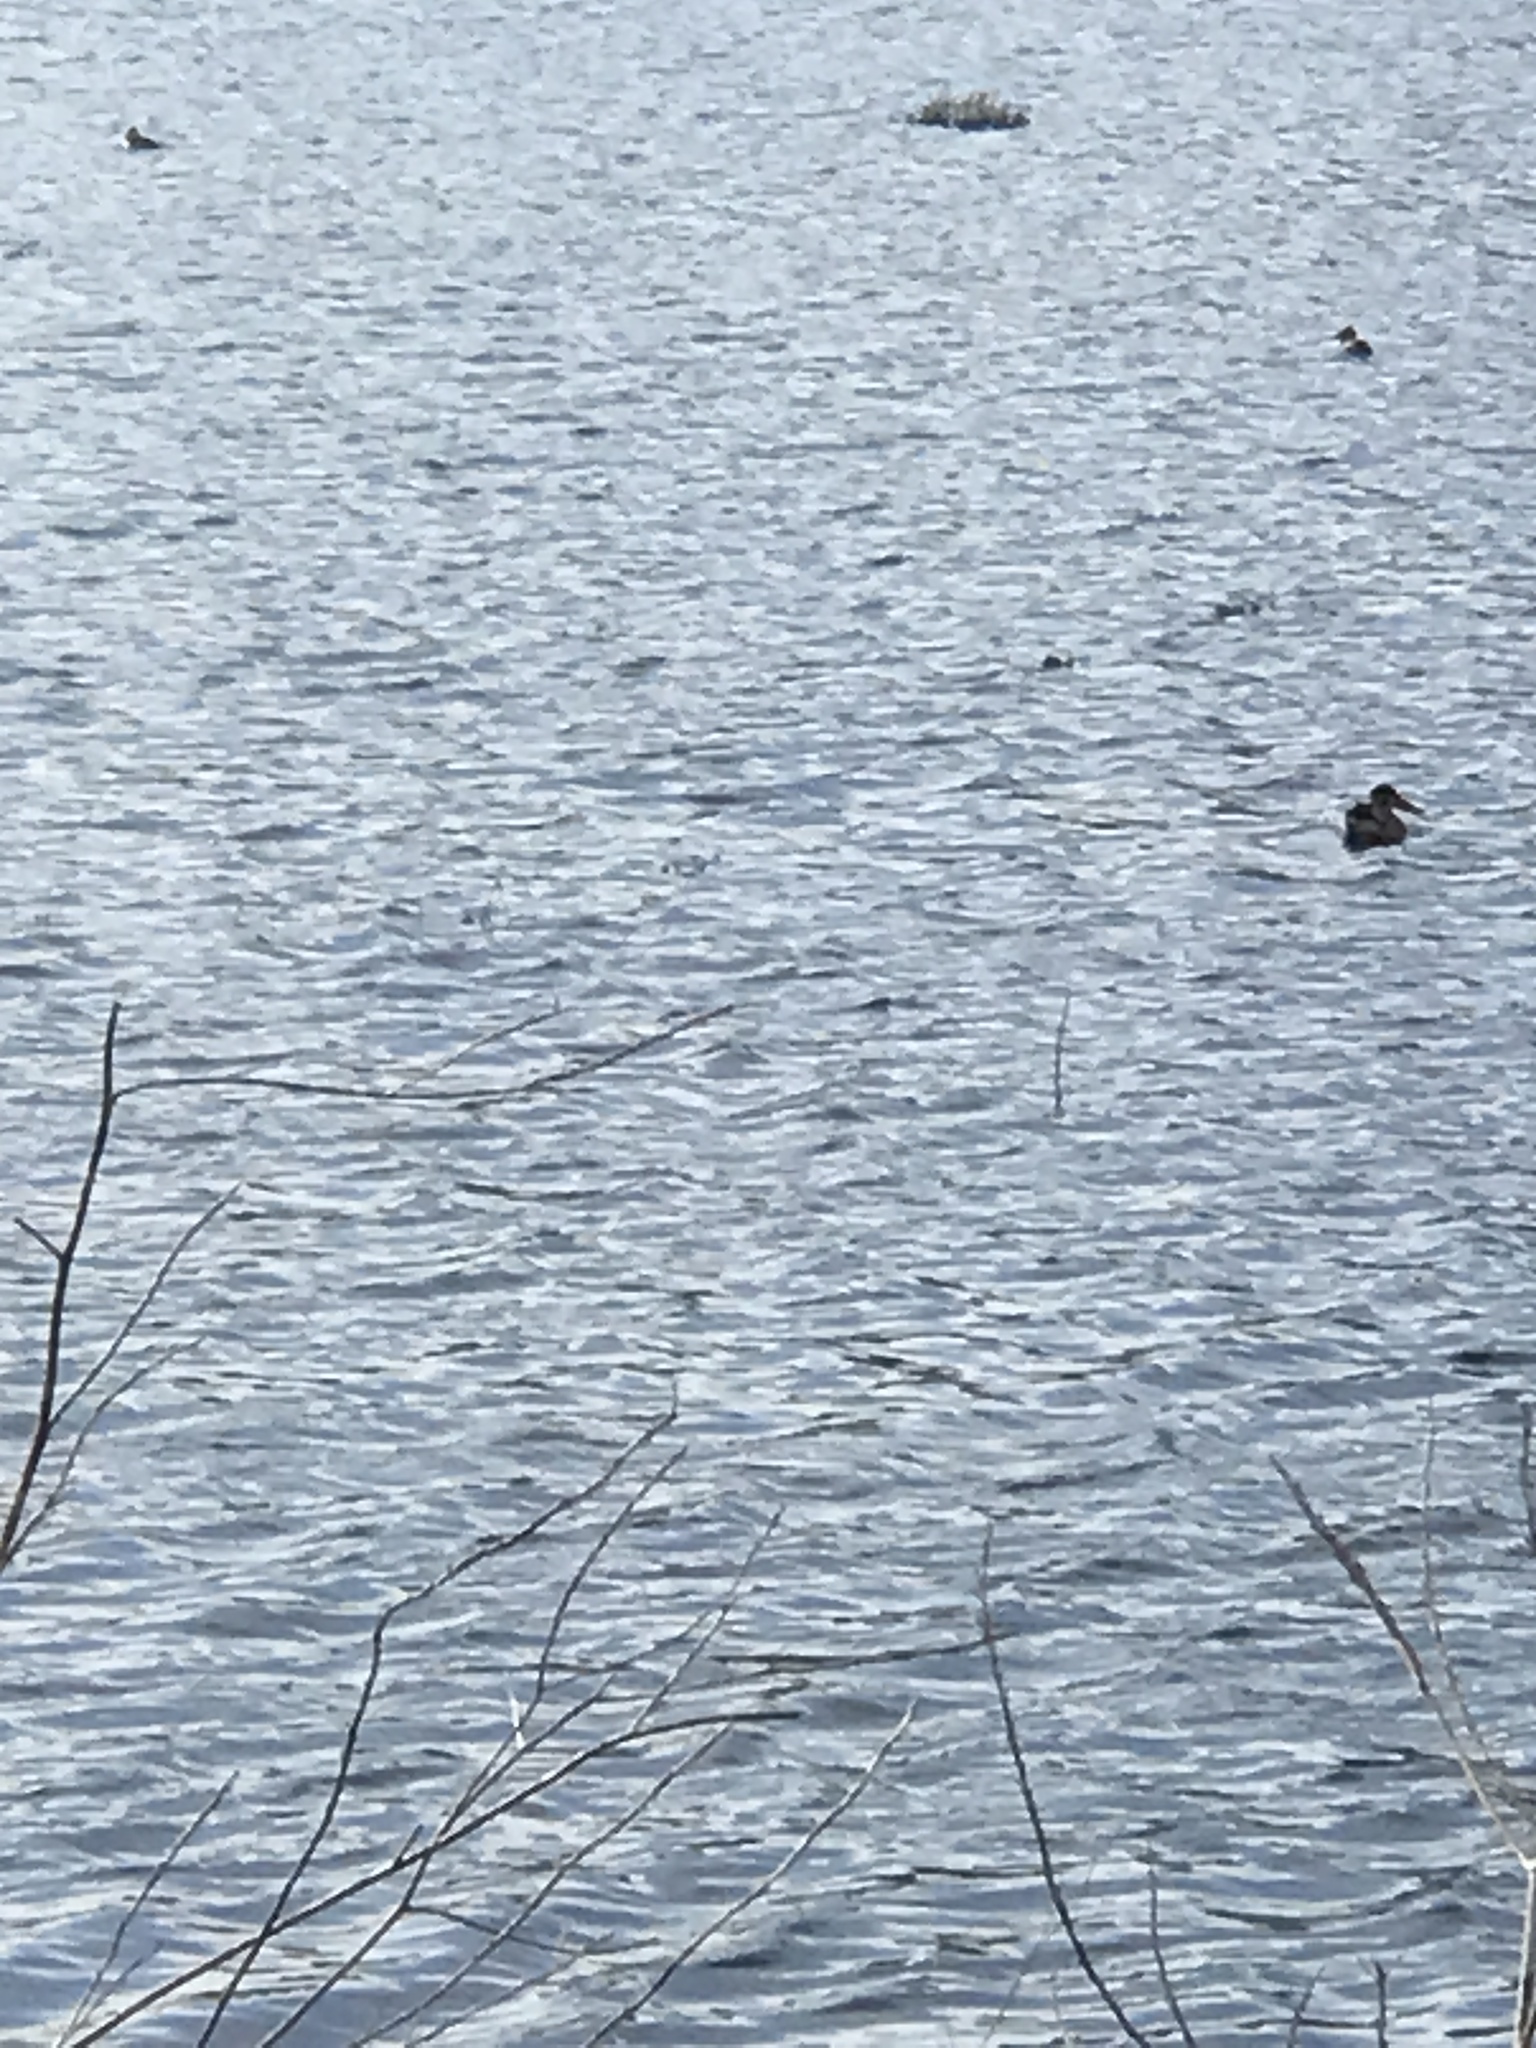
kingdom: Animalia
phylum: Chordata
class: Aves
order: Anseriformes
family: Anatidae
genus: Spatula
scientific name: Spatula clypeata
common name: Northern shoveler
